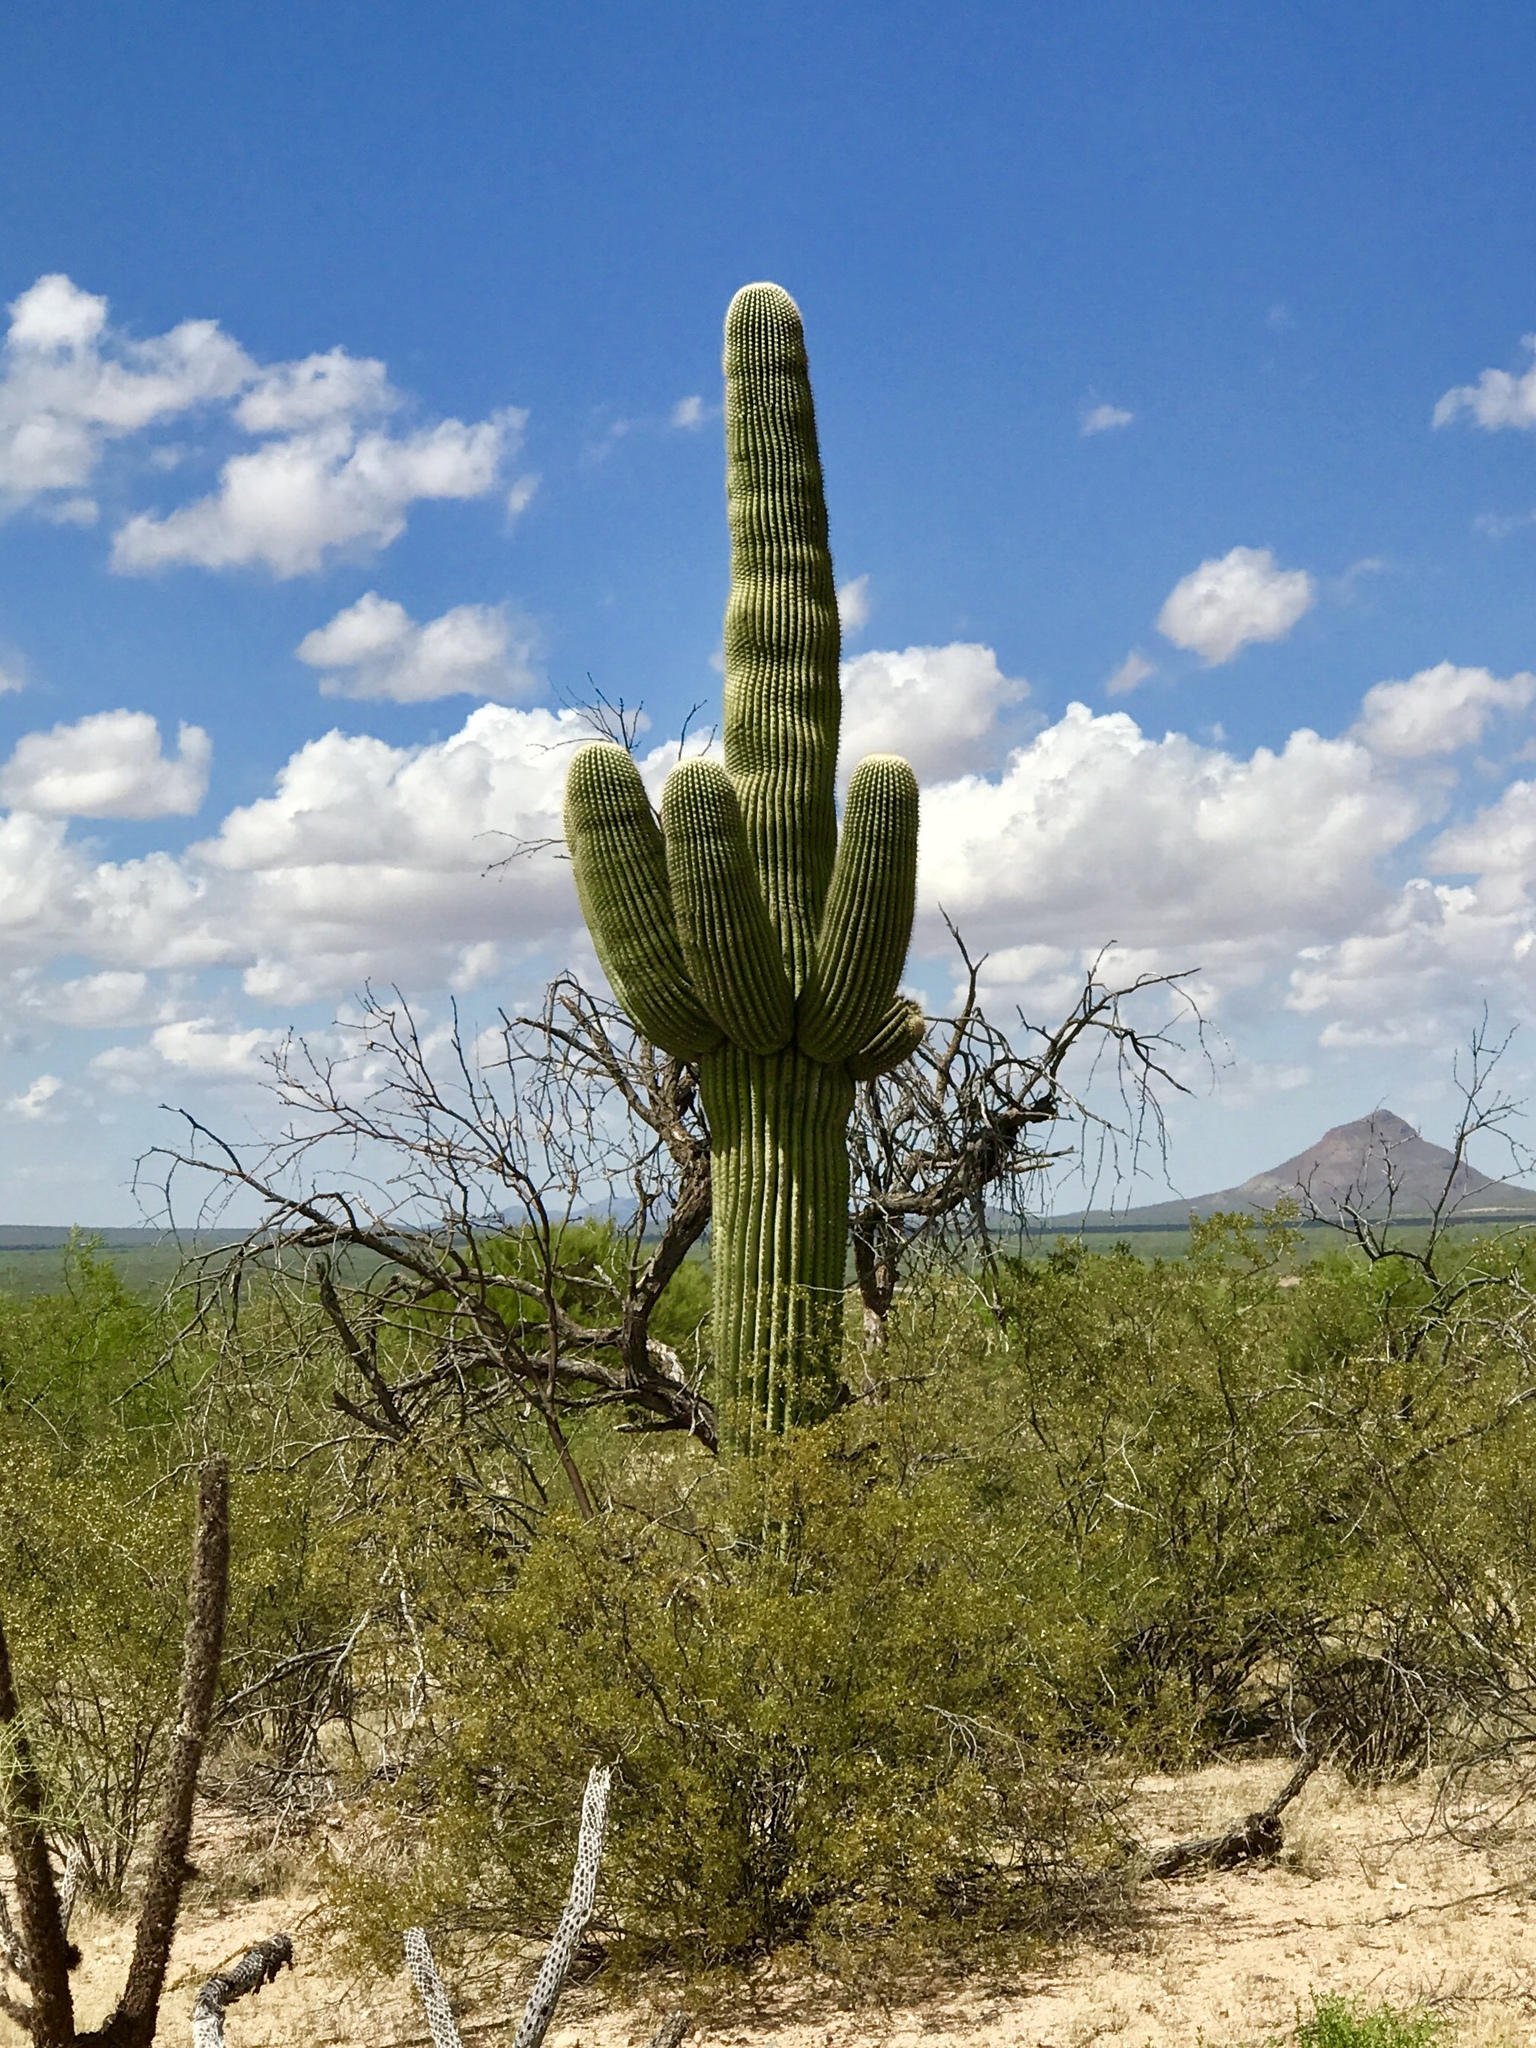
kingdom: Plantae
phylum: Tracheophyta
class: Magnoliopsida
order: Caryophyllales
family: Cactaceae
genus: Carnegiea
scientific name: Carnegiea gigantea
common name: Saguaro
